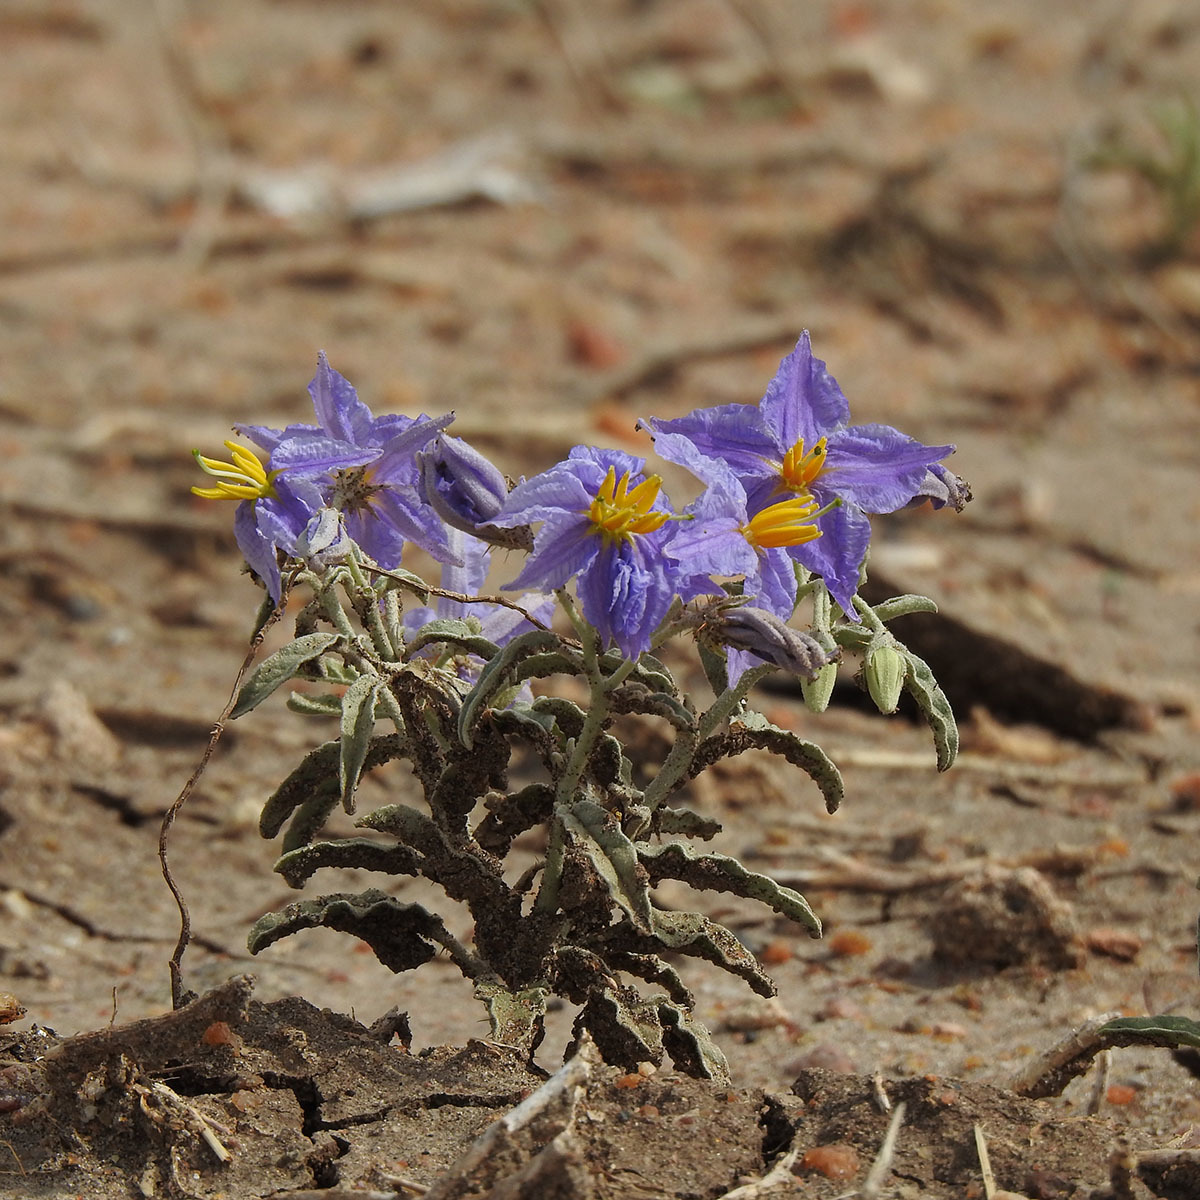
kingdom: Plantae
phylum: Tracheophyta
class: Magnoliopsida
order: Solanales
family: Solanaceae
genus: Solanum
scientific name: Solanum elaeagnifolium
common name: Silverleaf nightshade
